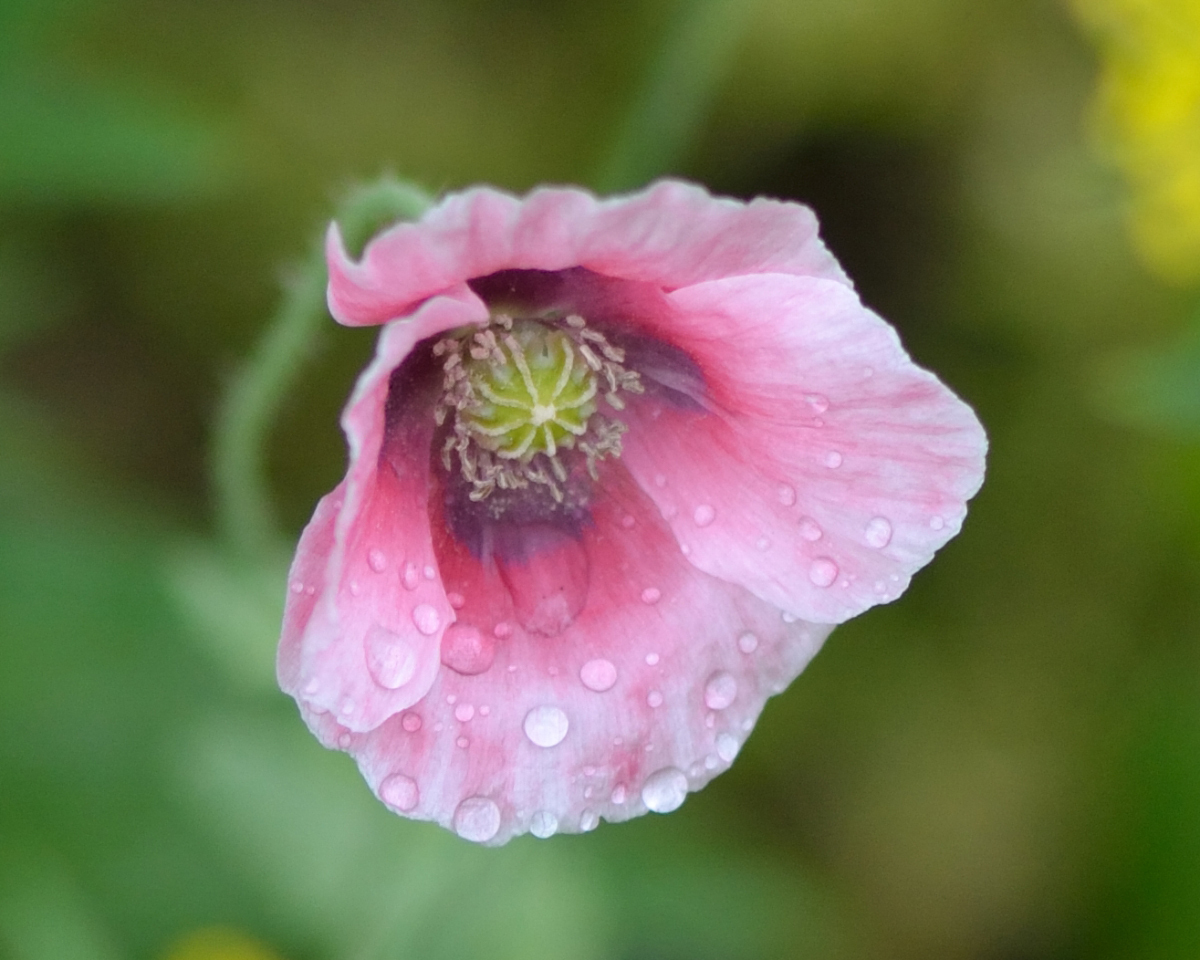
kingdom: Plantae
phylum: Tracheophyta
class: Magnoliopsida
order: Ranunculales
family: Papaveraceae
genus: Papaver
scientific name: Papaver somniferum
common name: Opium poppy
